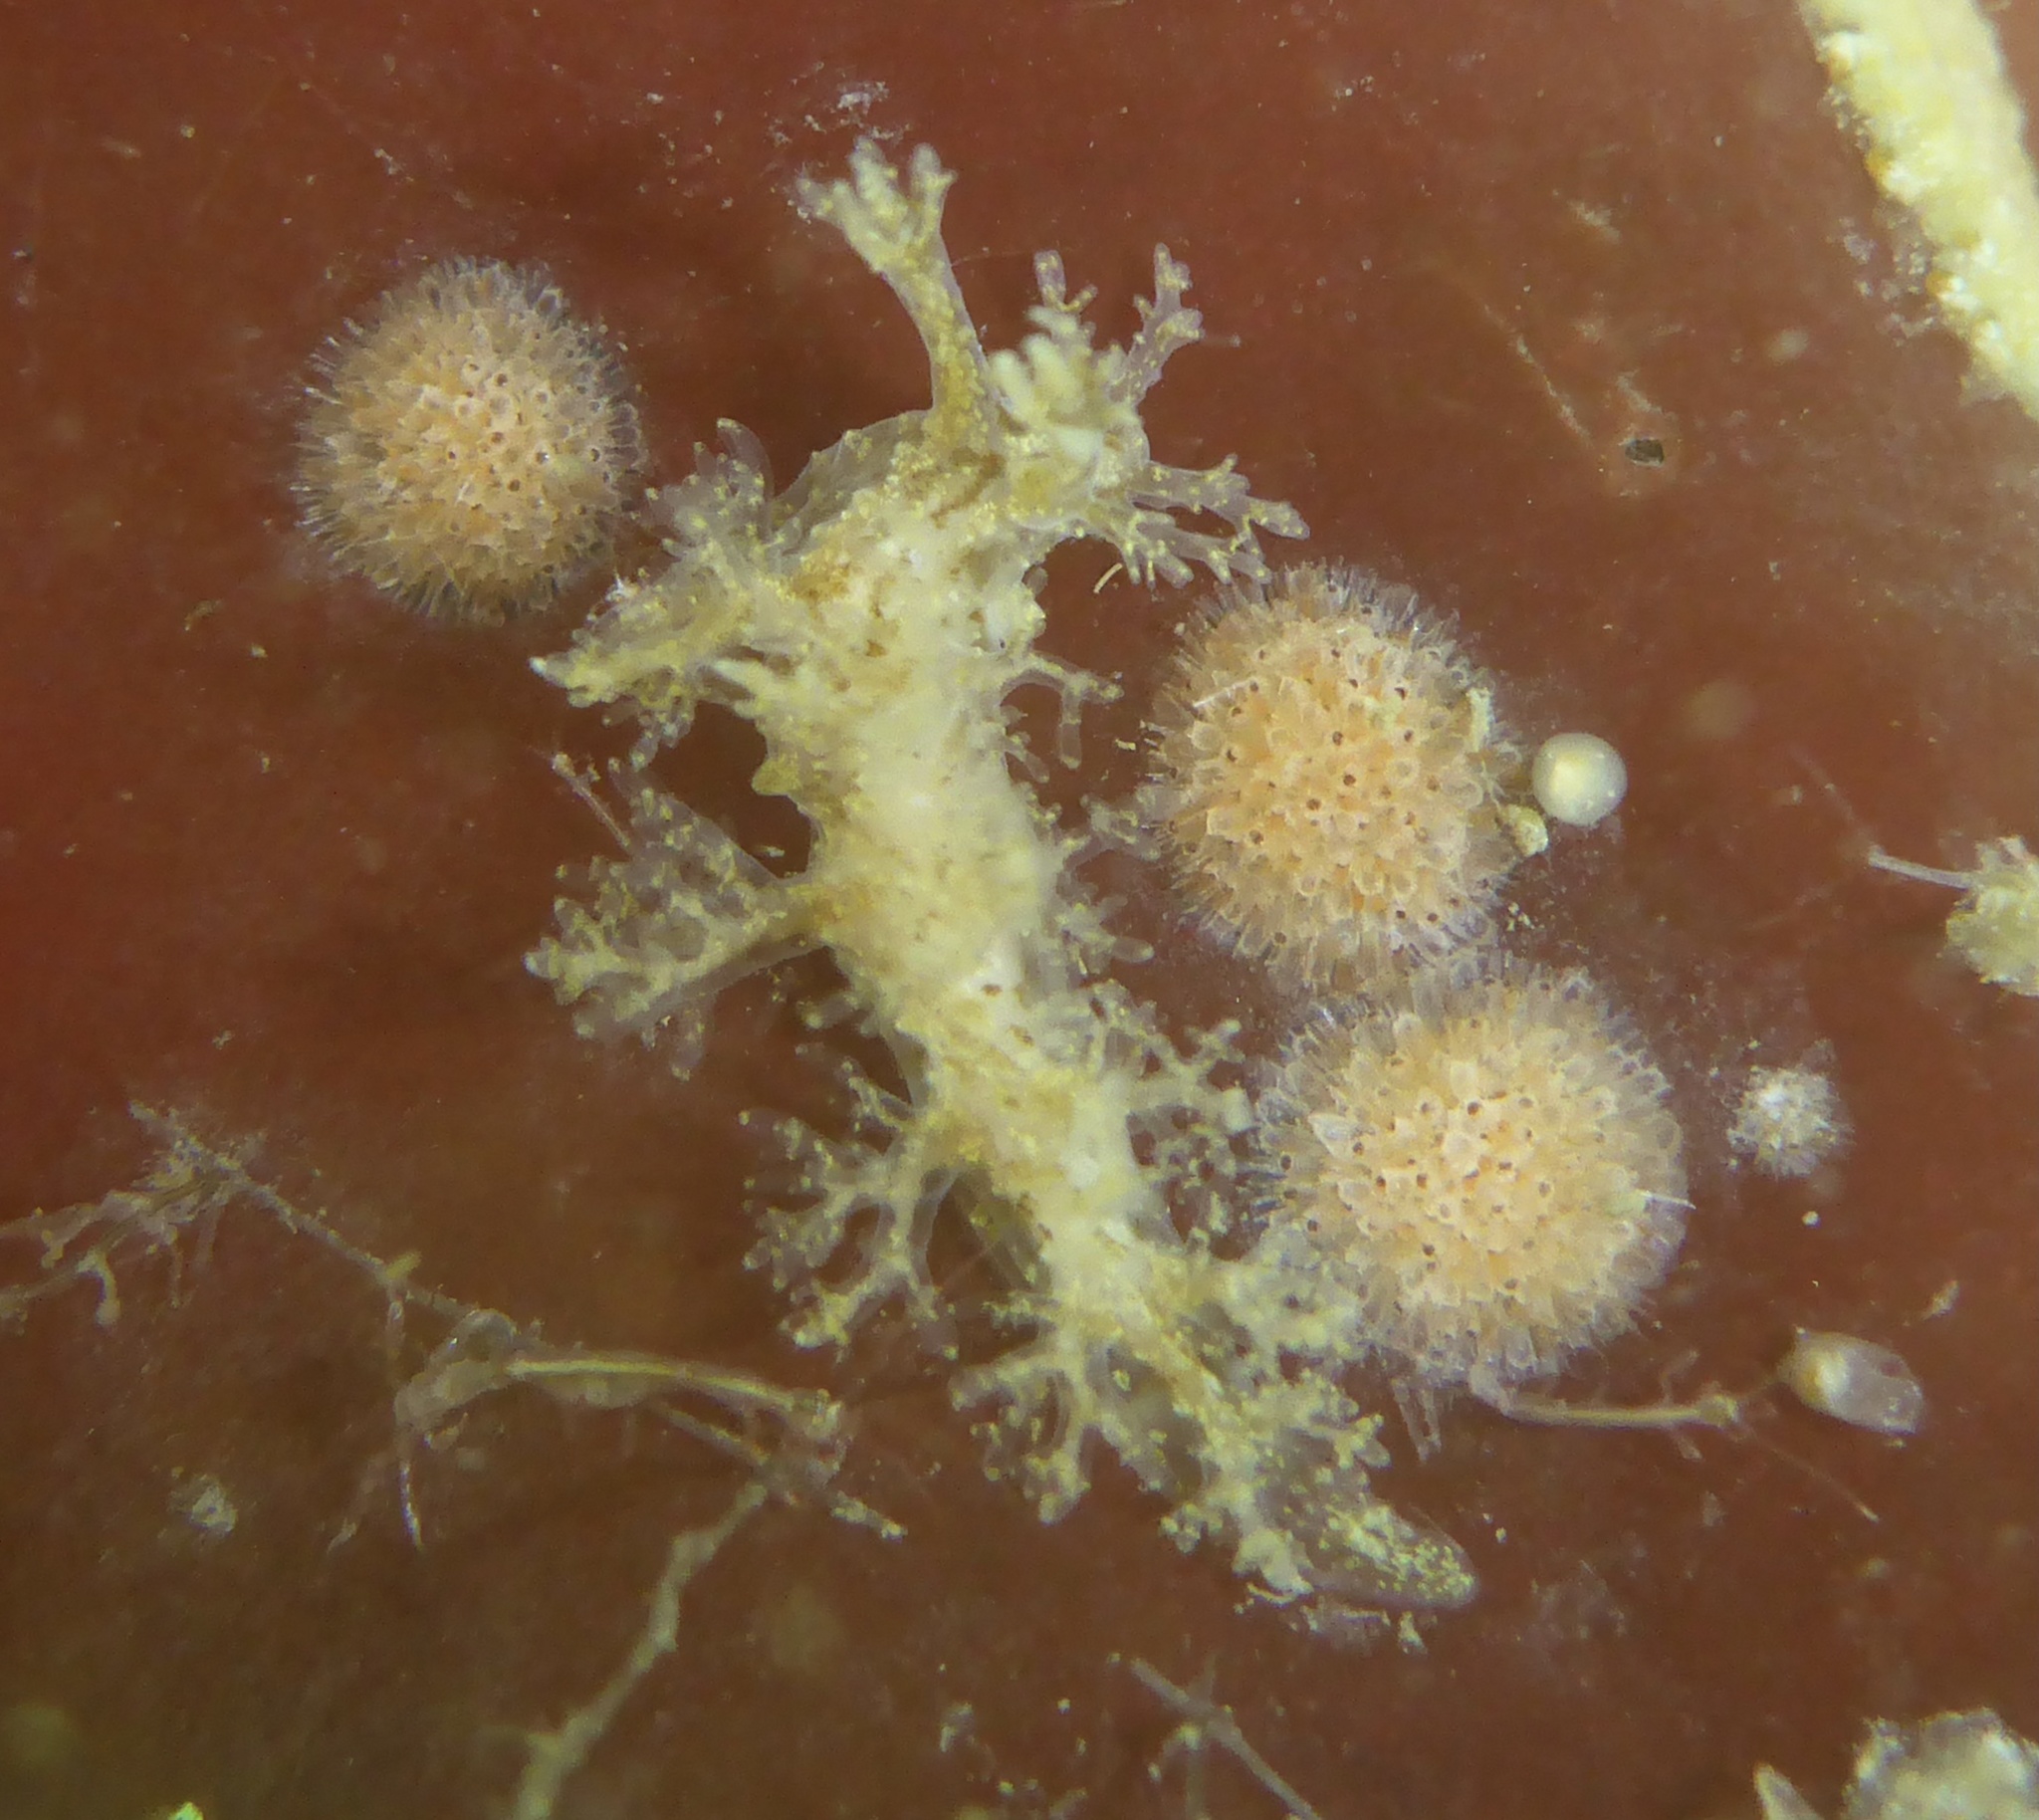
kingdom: Animalia
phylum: Mollusca
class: Gastropoda
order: Nudibranchia
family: Dendronotidae
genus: Dendronotus
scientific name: Dendronotus venustus
